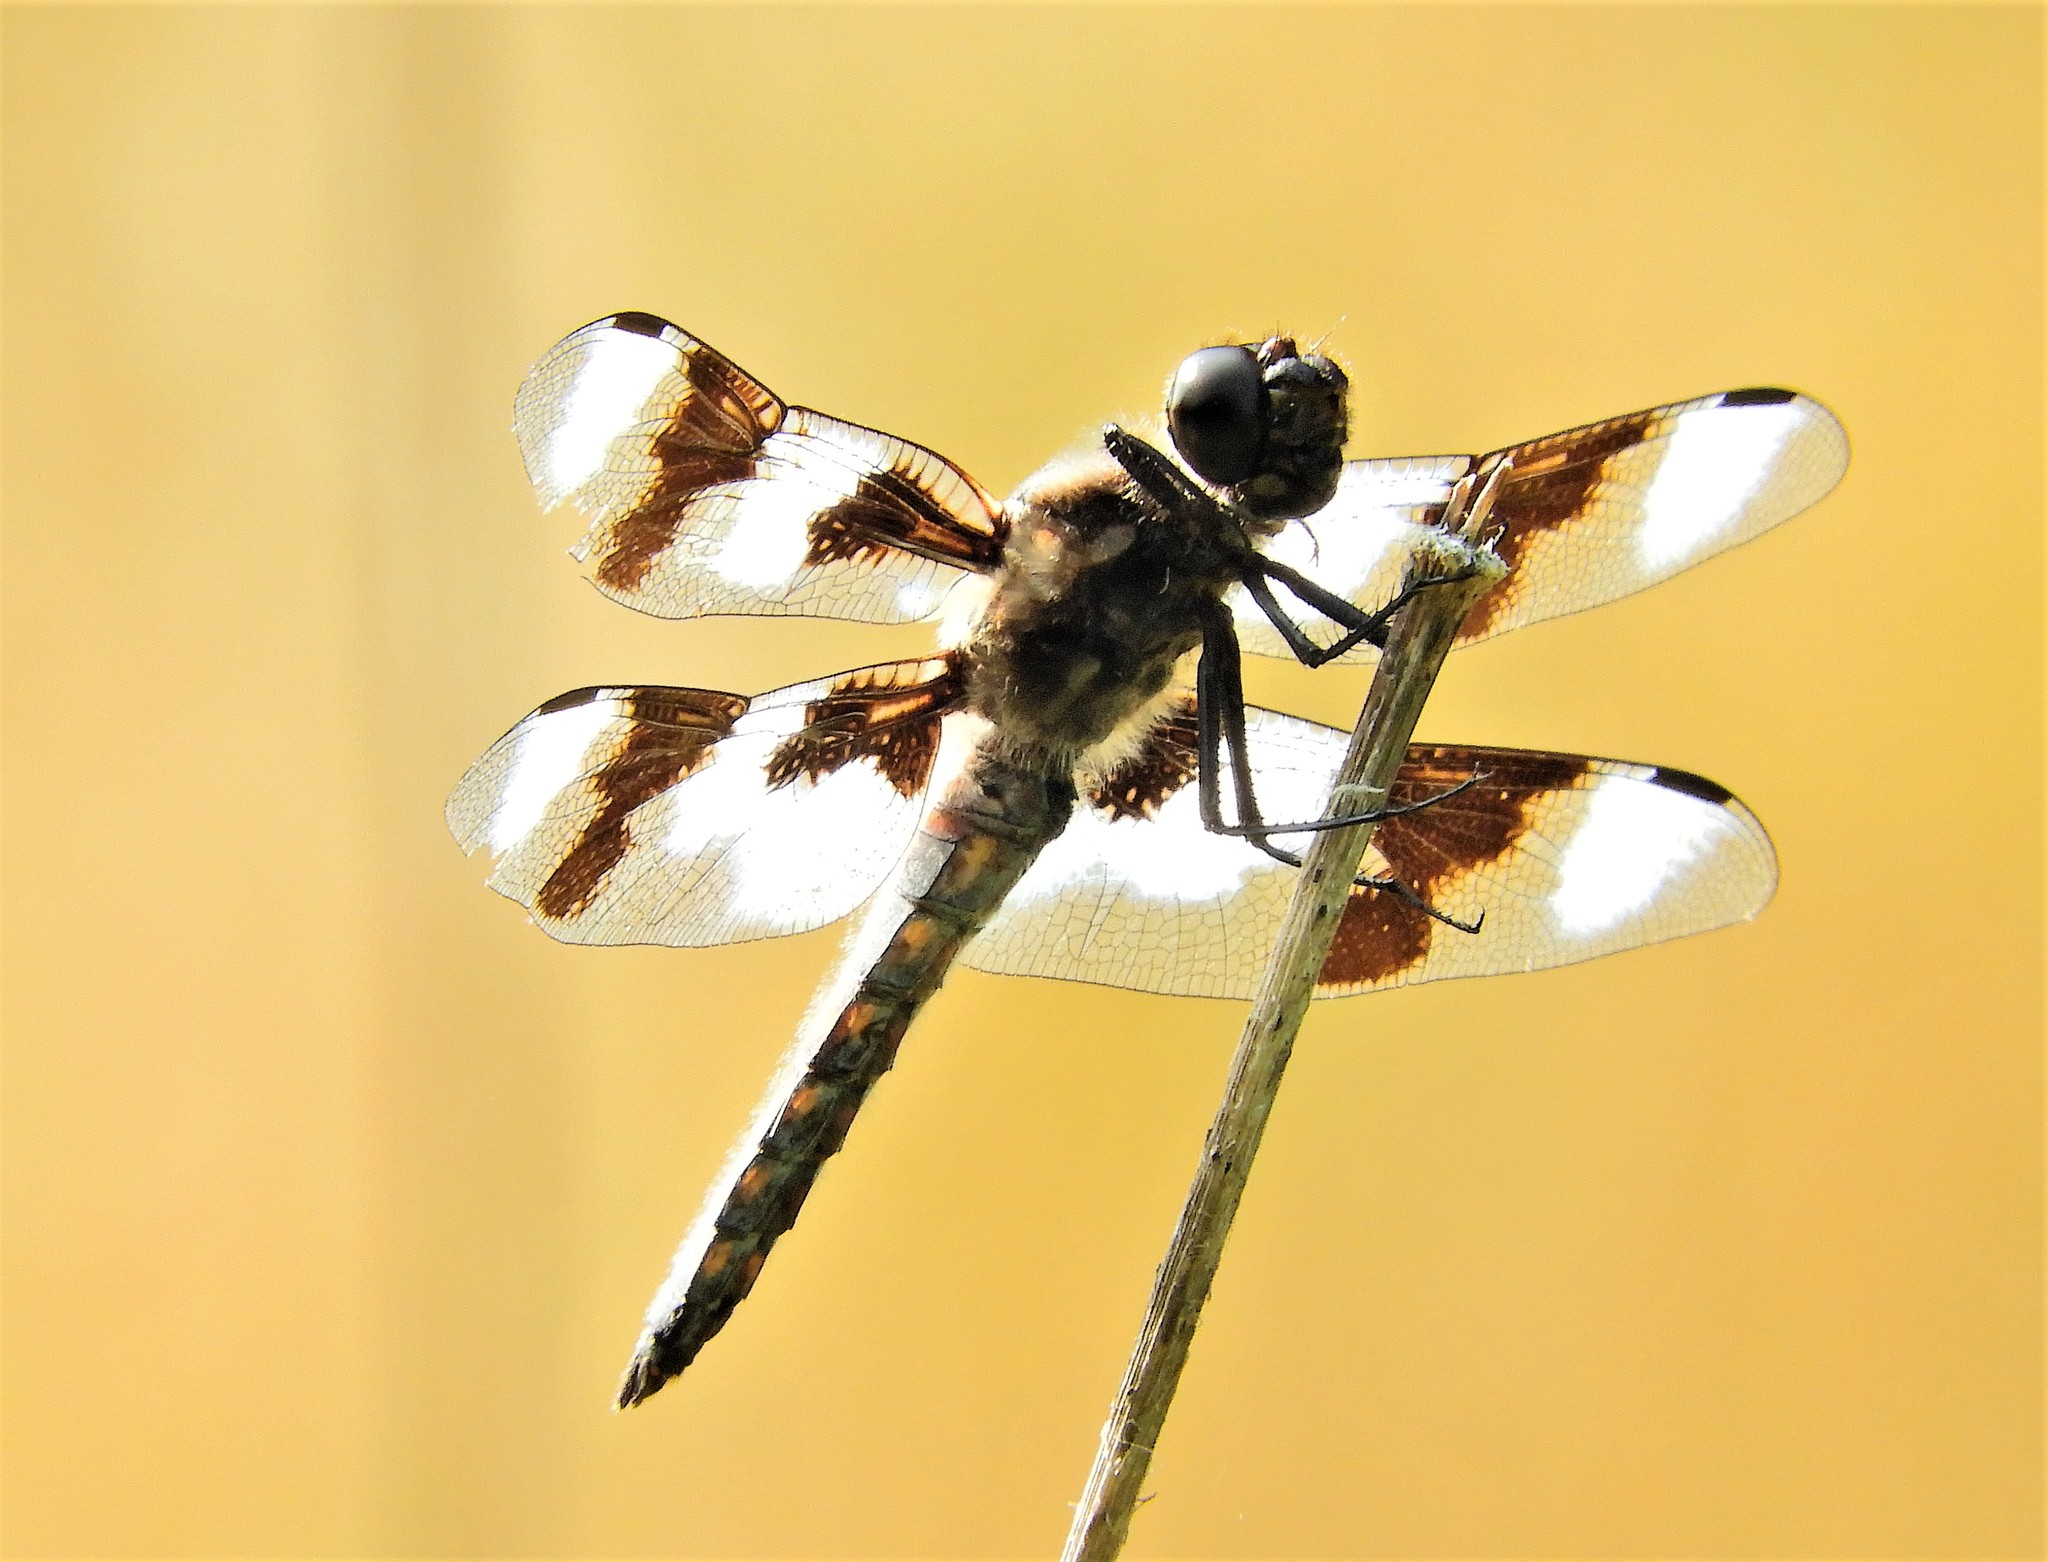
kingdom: Animalia
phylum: Arthropoda
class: Insecta
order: Odonata
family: Libellulidae
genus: Libellula
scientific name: Libellula forensis
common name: Eight-spotted skimmer
